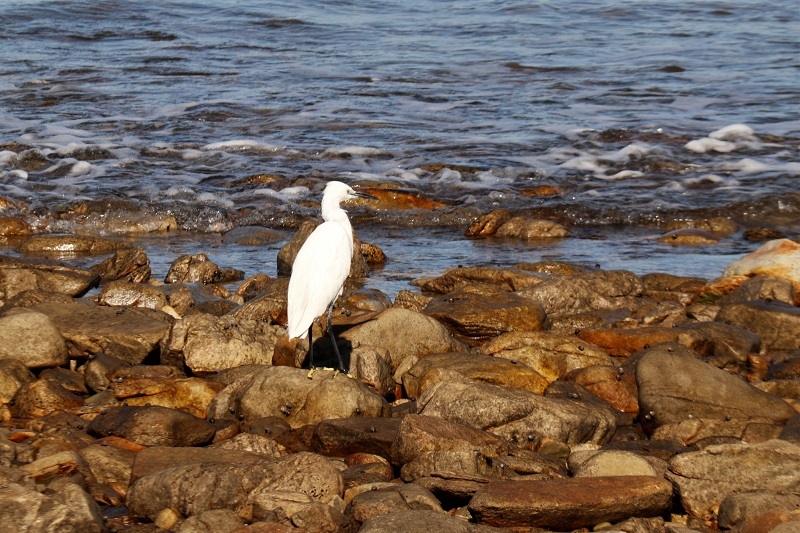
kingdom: Animalia
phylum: Chordata
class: Aves
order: Pelecaniformes
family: Ardeidae
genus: Egretta
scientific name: Egretta garzetta
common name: Little egret
